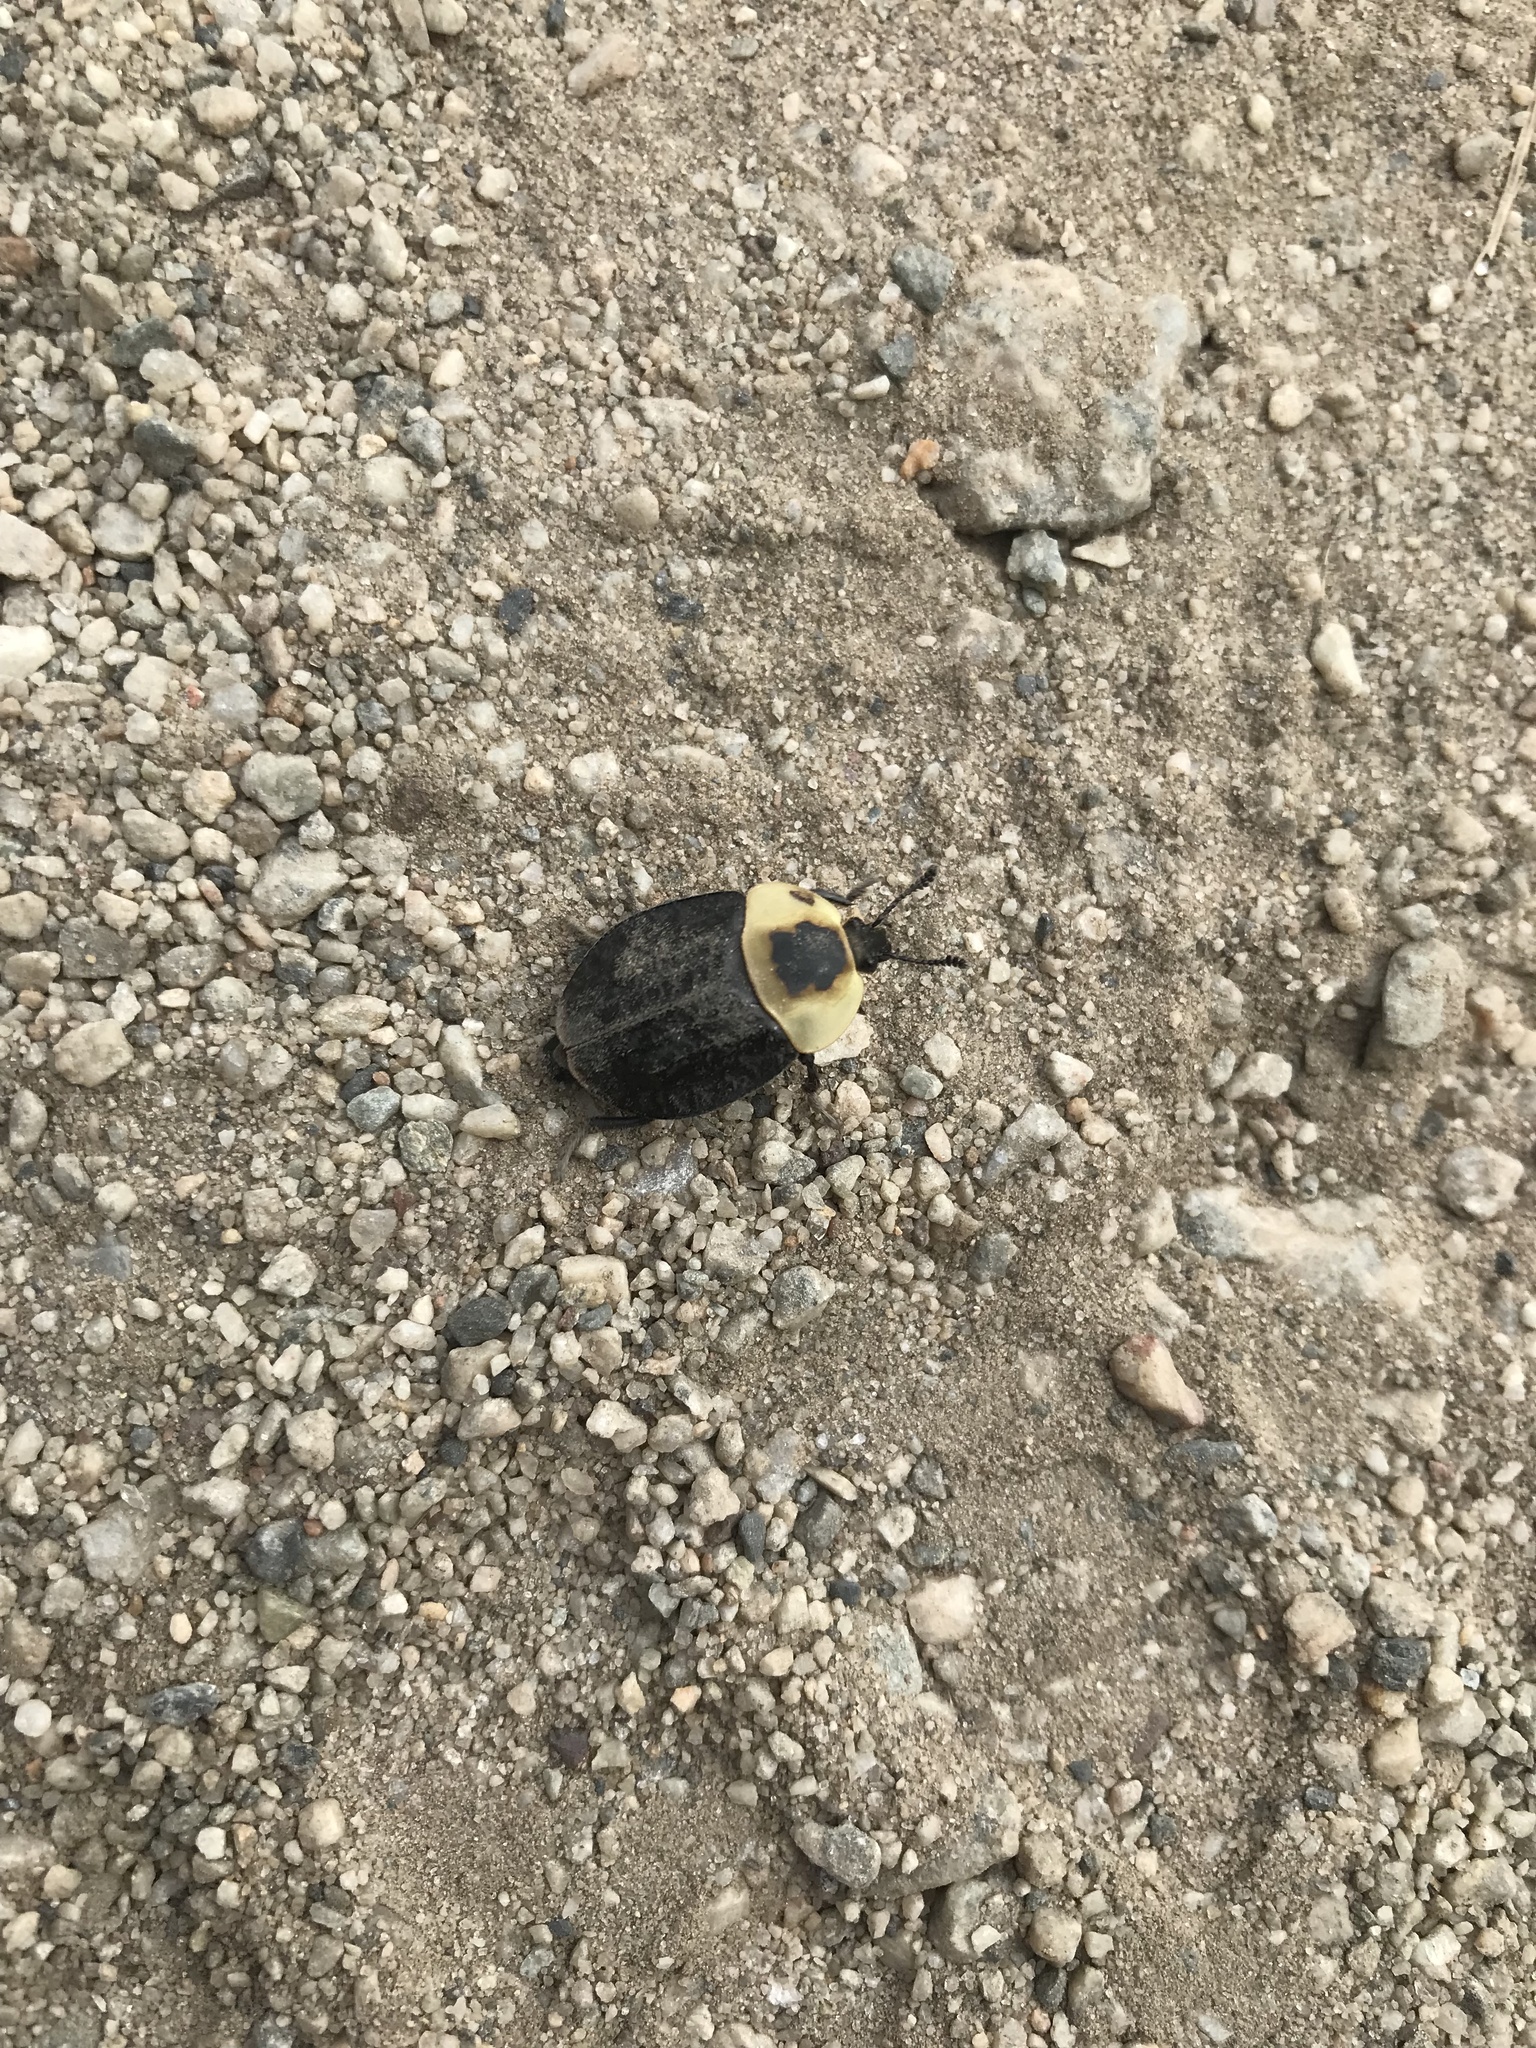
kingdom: Animalia
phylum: Arthropoda
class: Insecta
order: Coleoptera
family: Staphylinidae
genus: Necrophila
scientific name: Necrophila americana
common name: American carrion beetle
